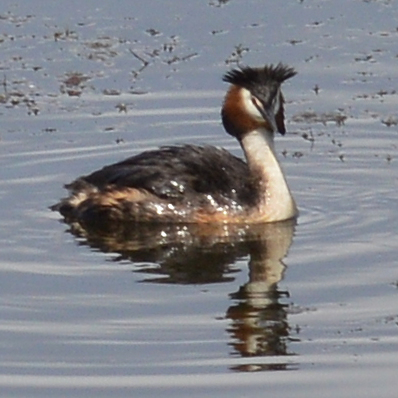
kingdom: Animalia
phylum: Chordata
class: Aves
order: Podicipediformes
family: Podicipedidae
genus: Podiceps
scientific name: Podiceps cristatus
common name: Great crested grebe
